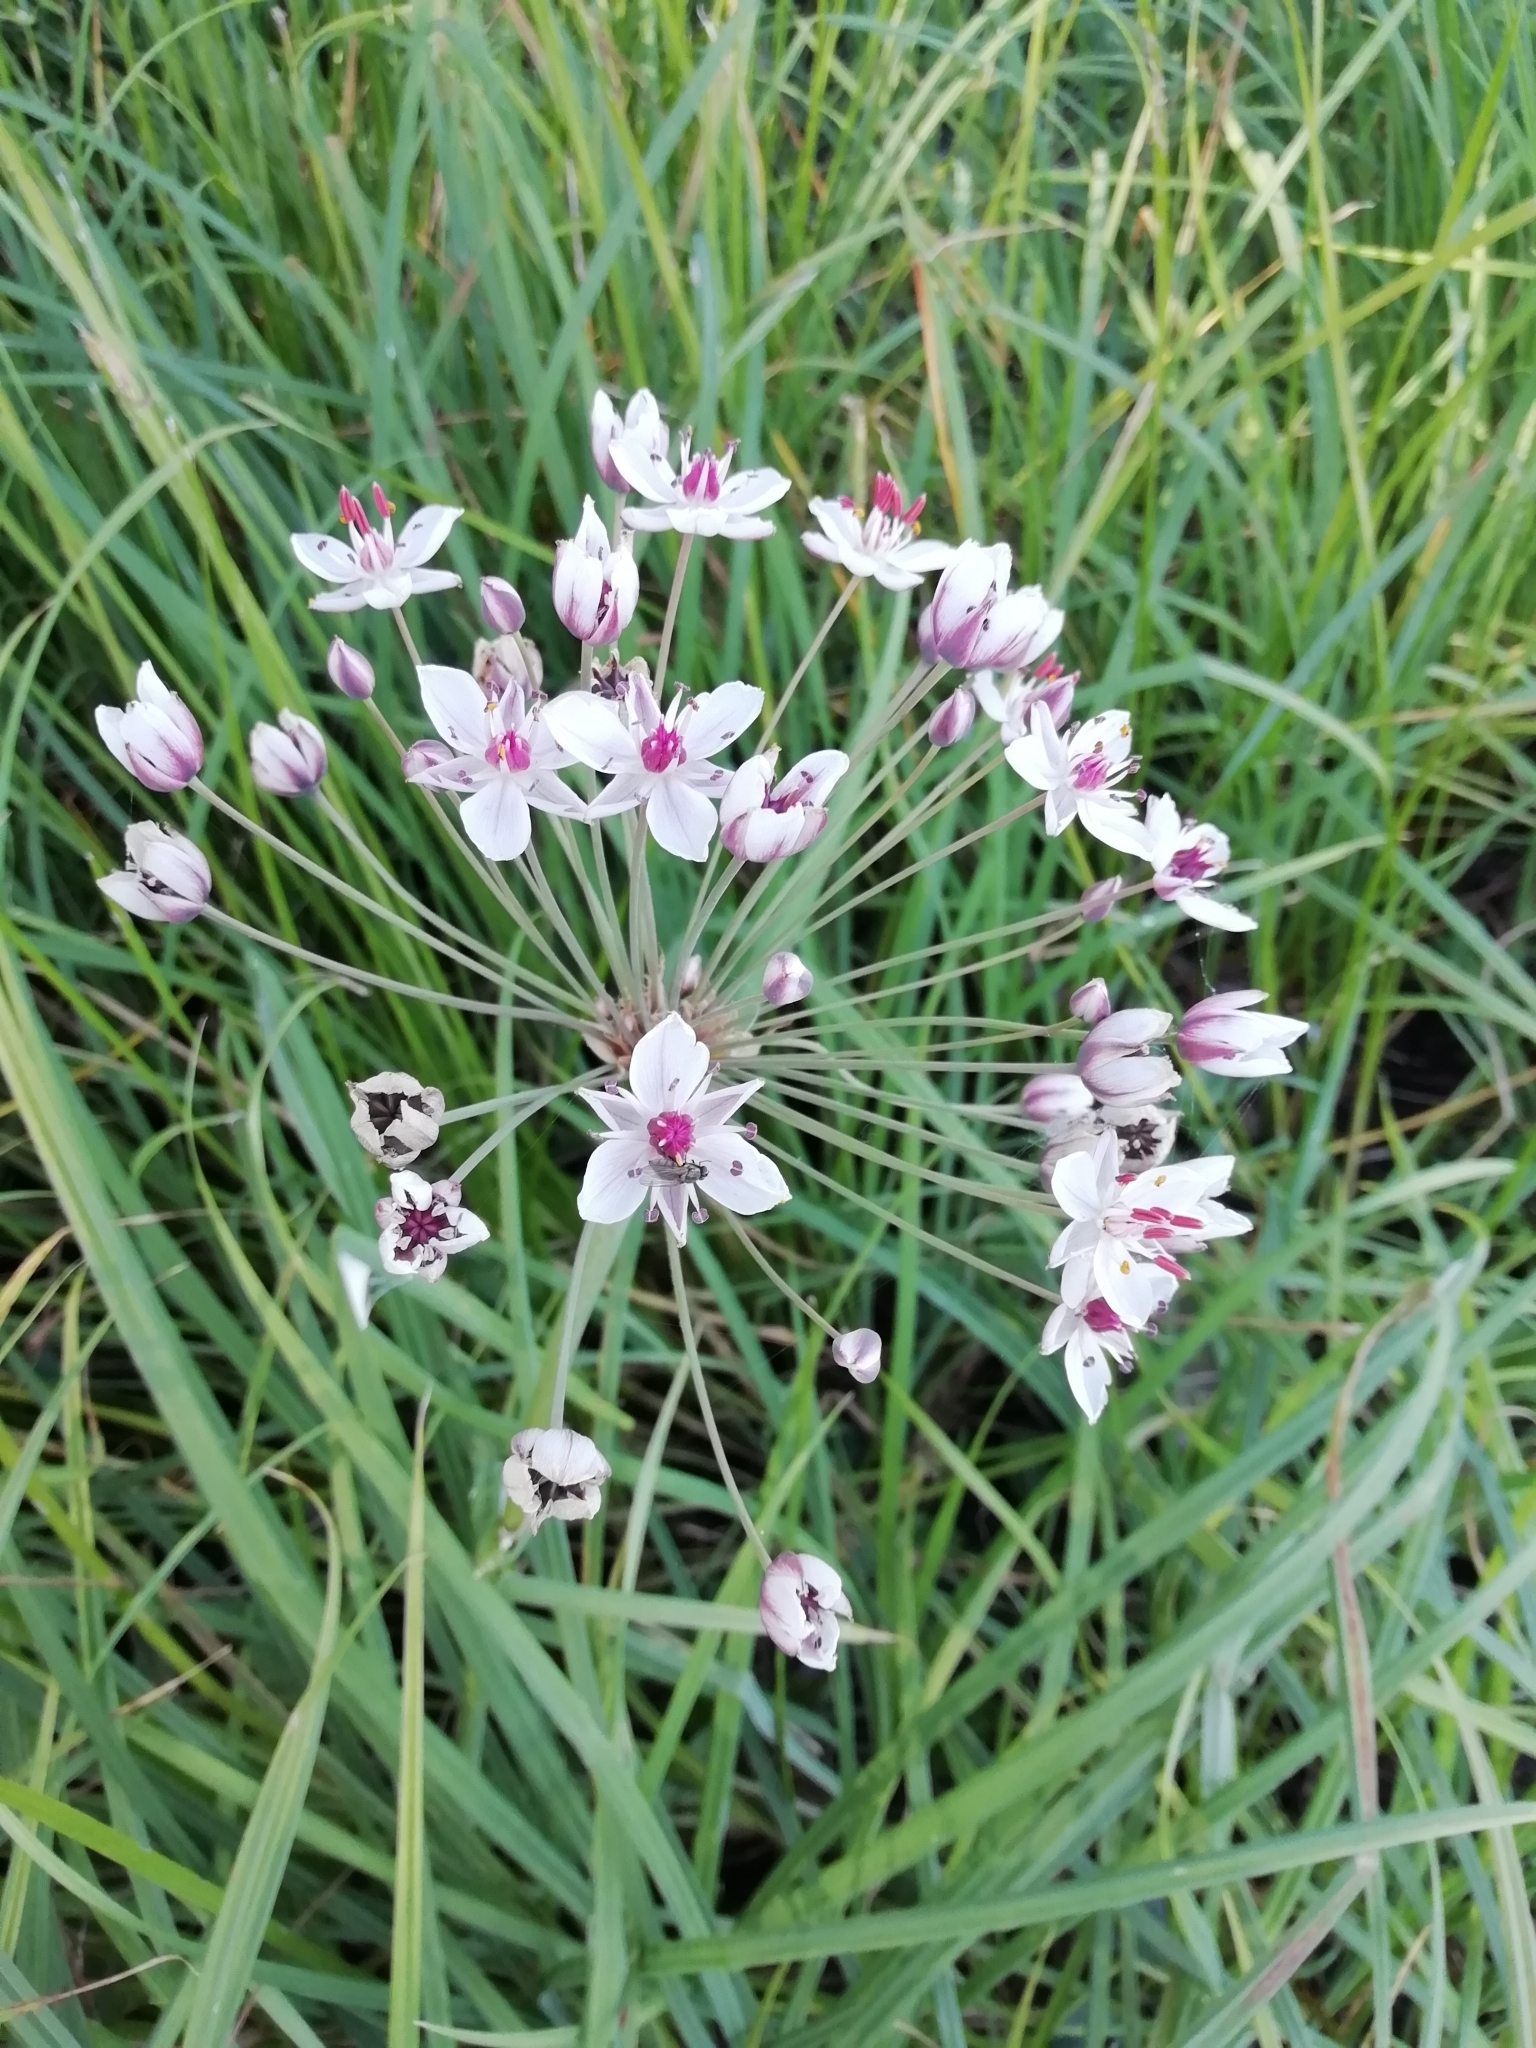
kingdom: Plantae
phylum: Tracheophyta
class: Liliopsida
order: Alismatales
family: Butomaceae
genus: Butomus
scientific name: Butomus umbellatus
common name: Flowering-rush
